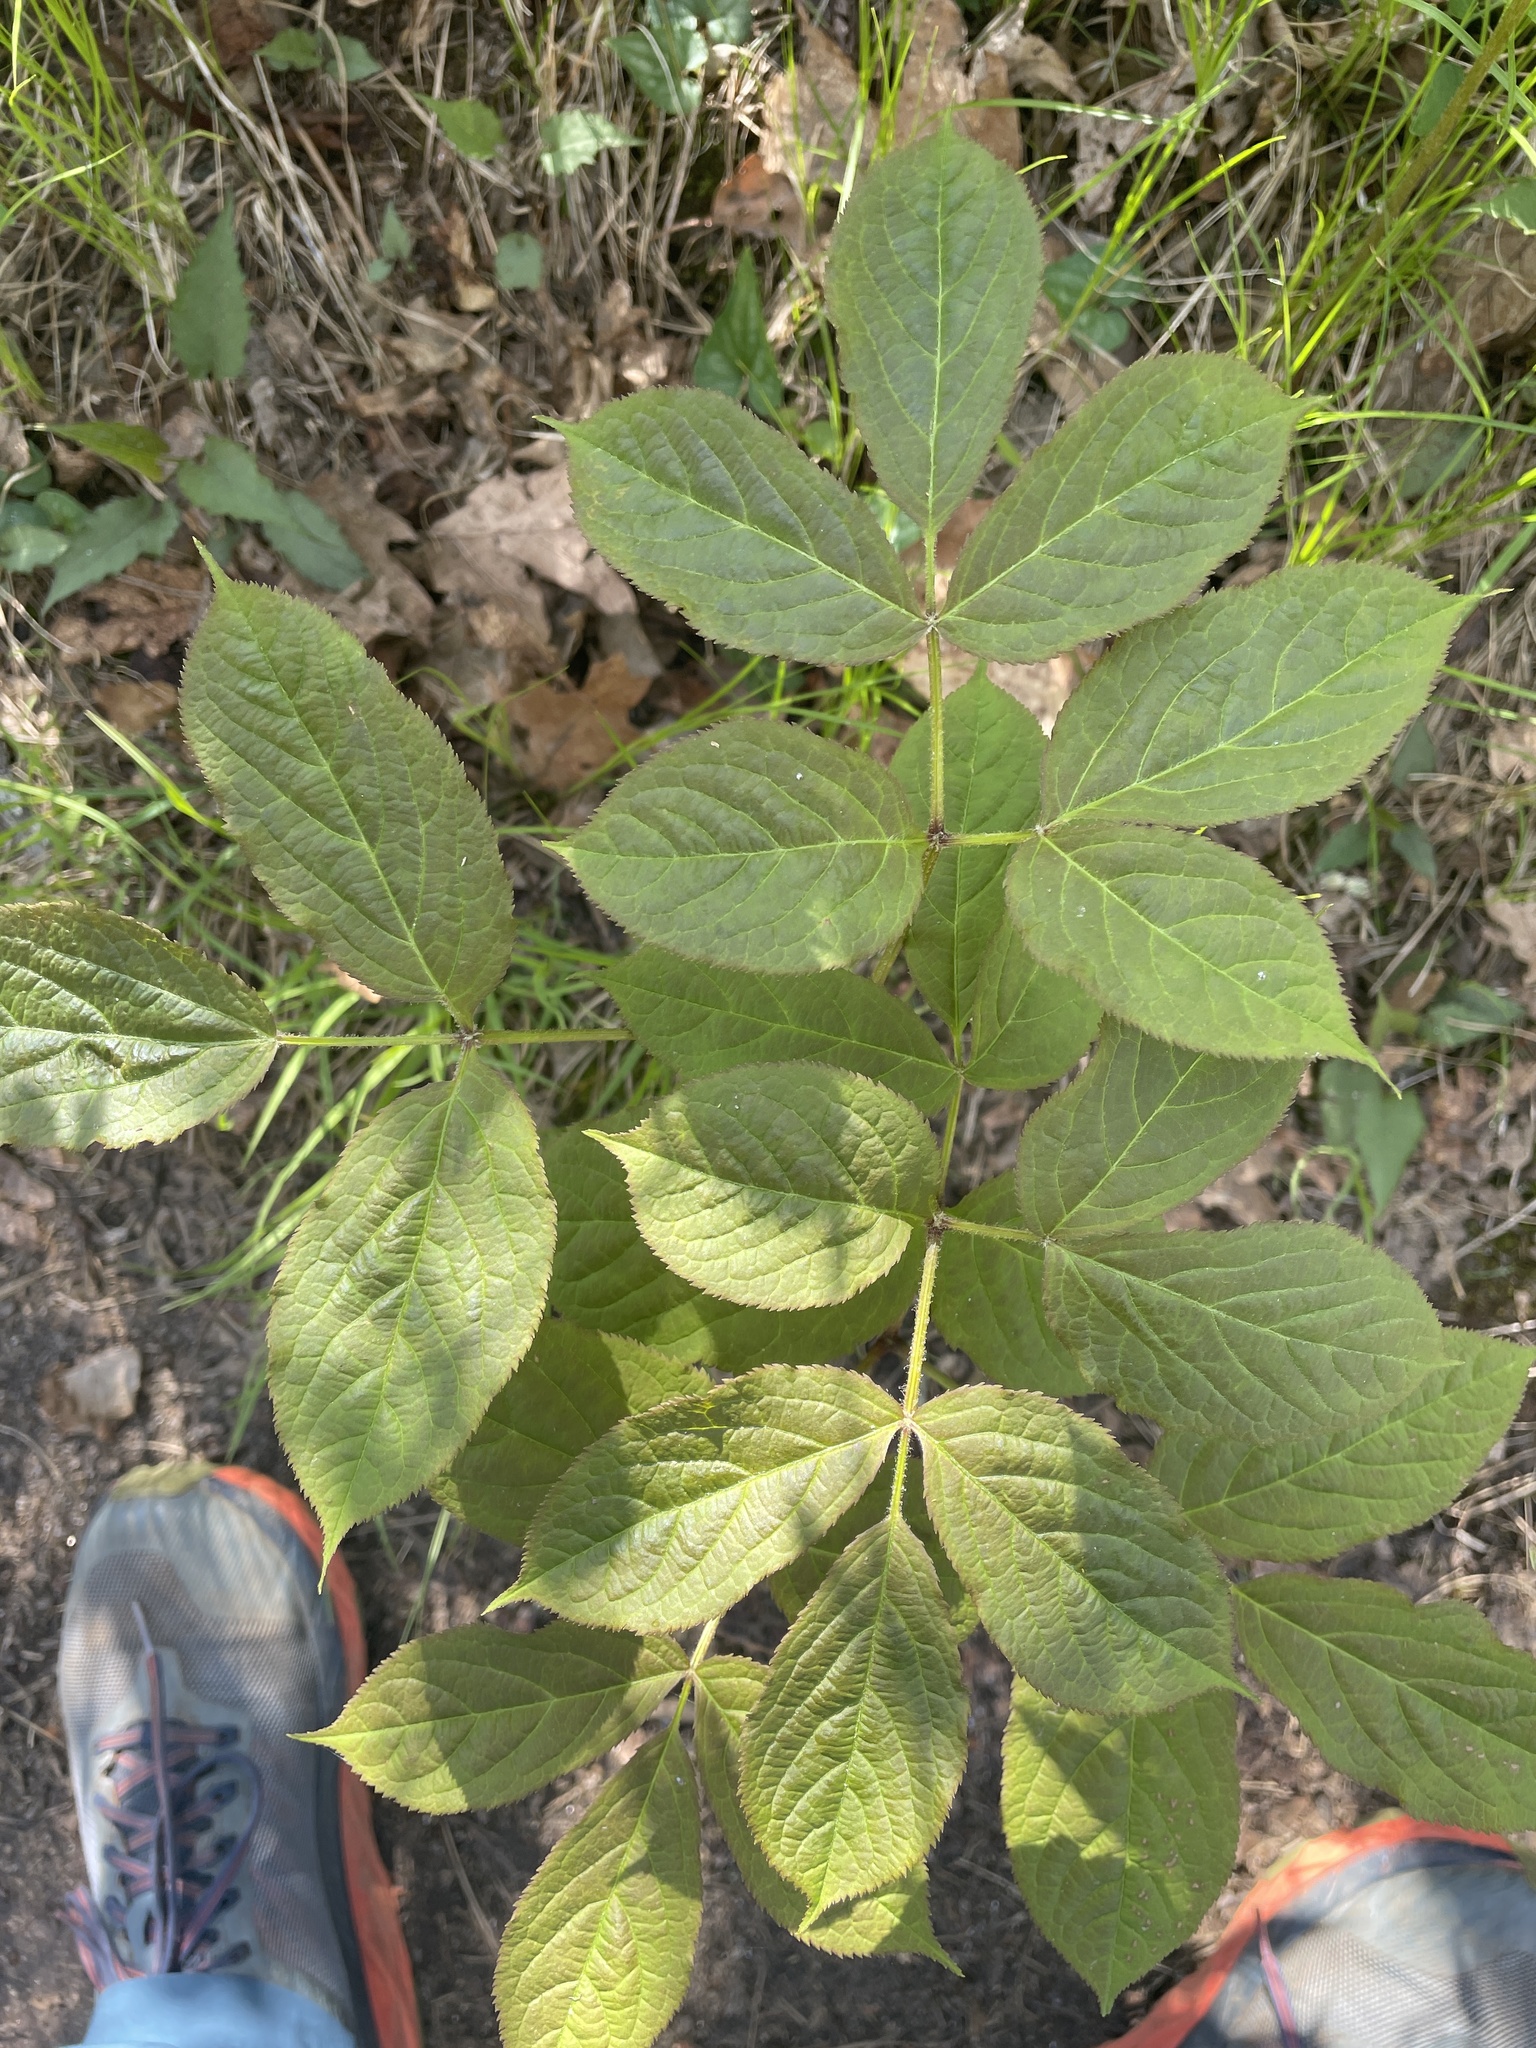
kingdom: Plantae
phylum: Tracheophyta
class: Magnoliopsida
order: Apiales
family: Araliaceae
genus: Aralia
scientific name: Aralia nudicaulis
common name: Wild sarsaparilla
